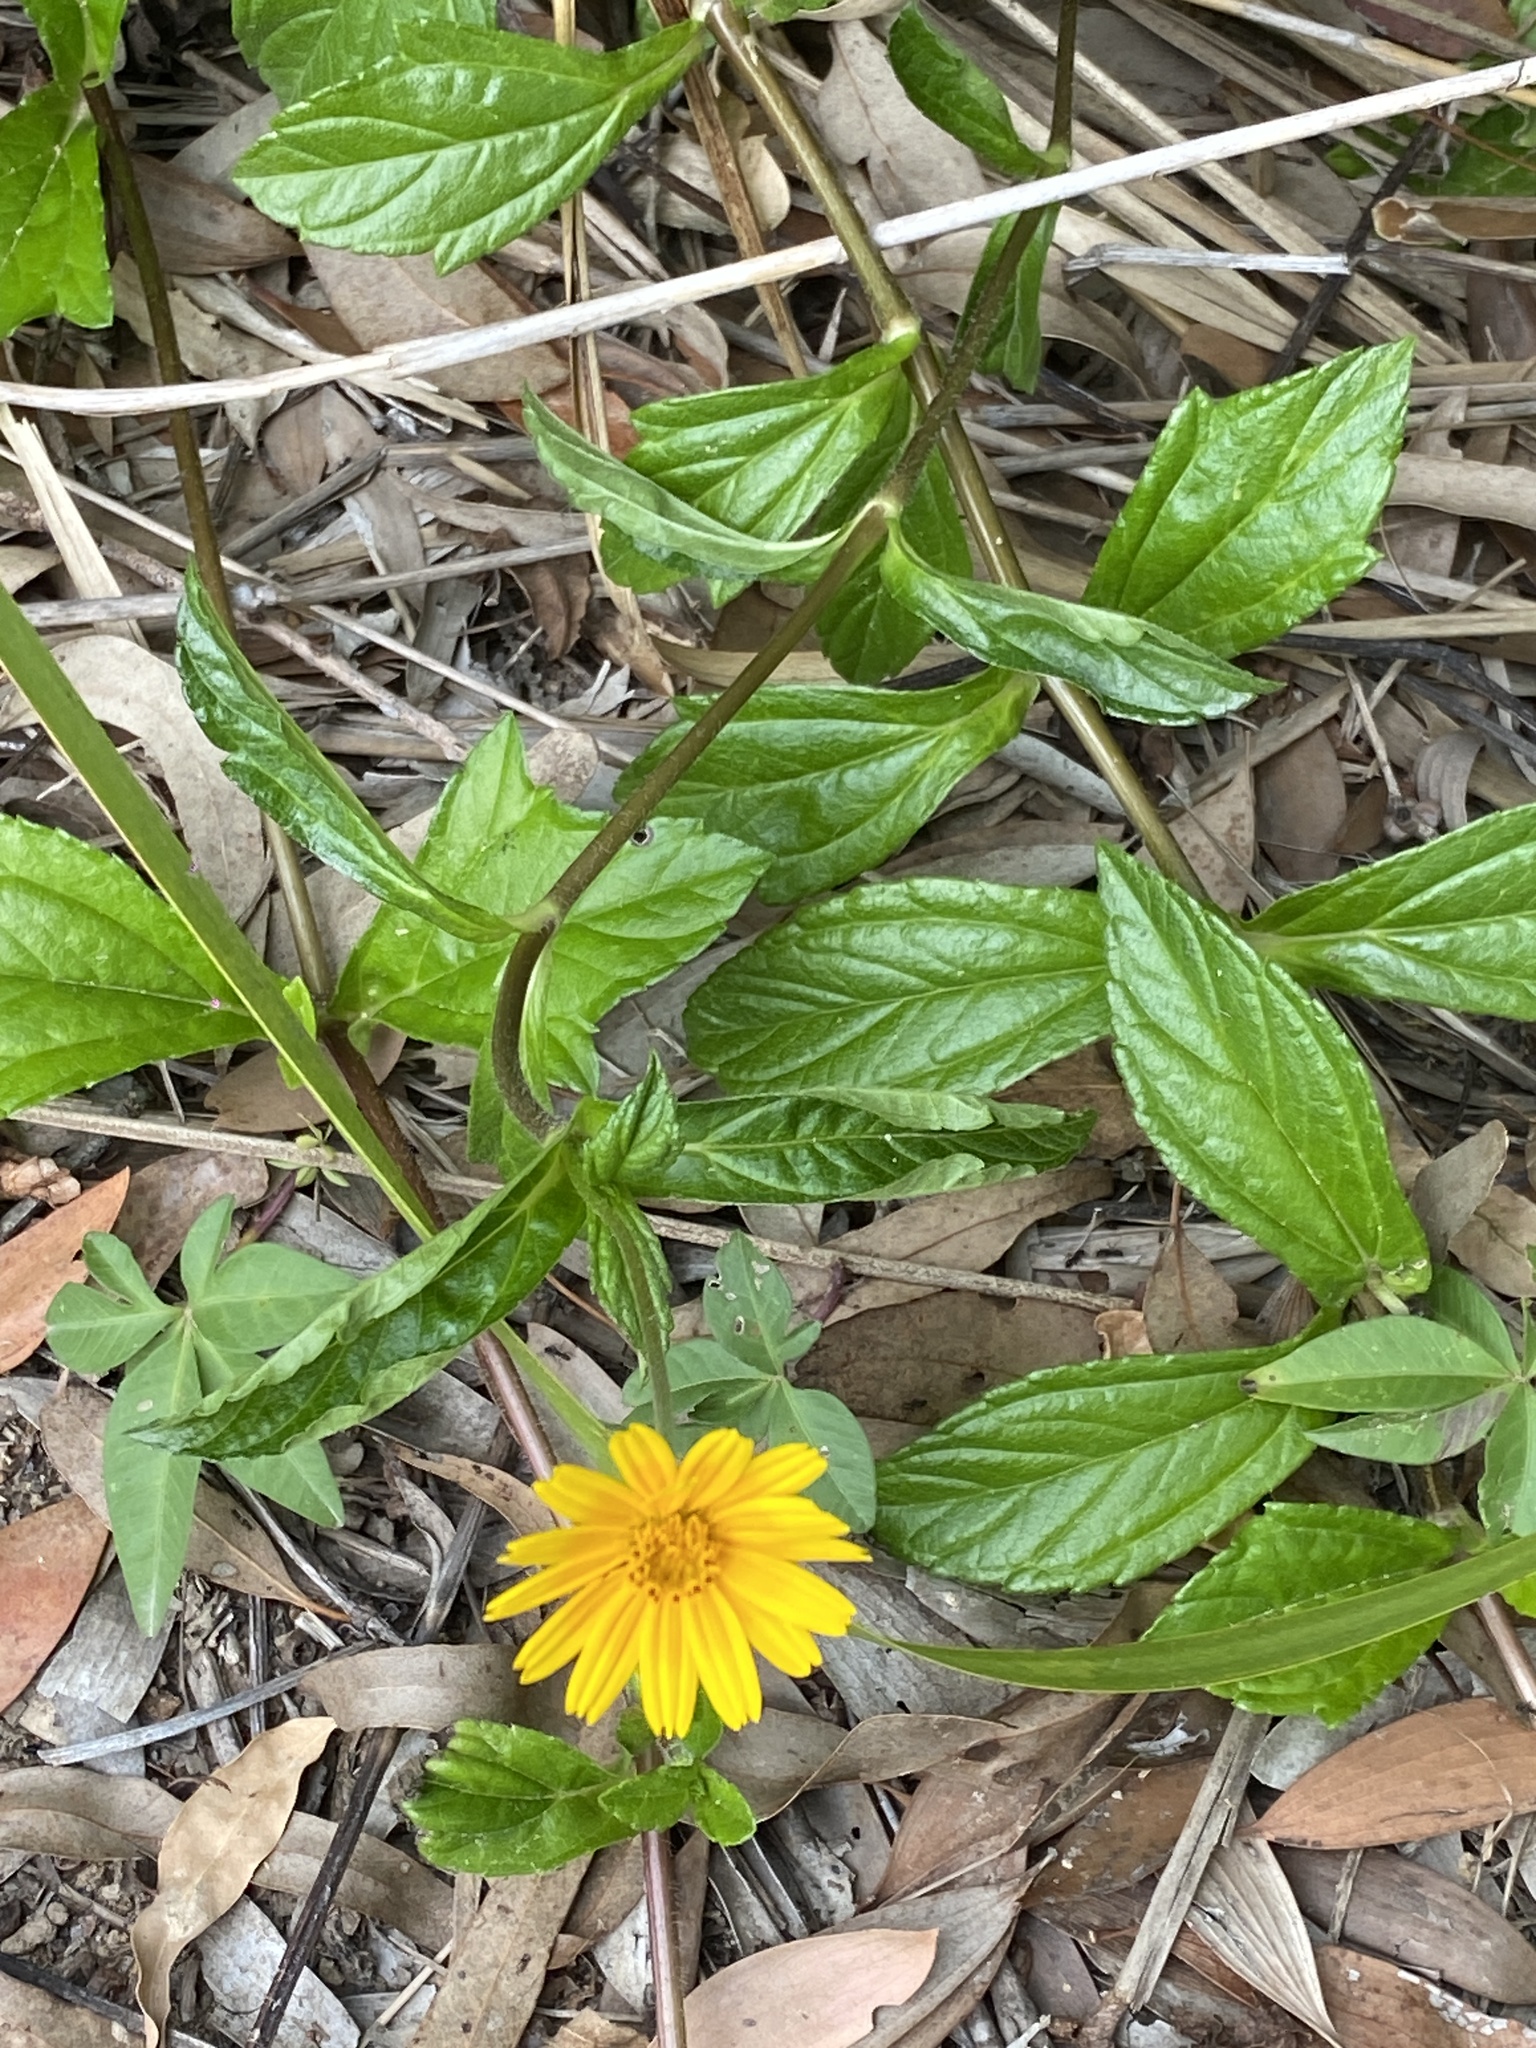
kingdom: Plantae
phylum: Tracheophyta
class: Magnoliopsida
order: Asterales
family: Asteraceae
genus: Sphagneticola
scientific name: Sphagneticola trilobata
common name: Bay biscayne creeping-oxeye
